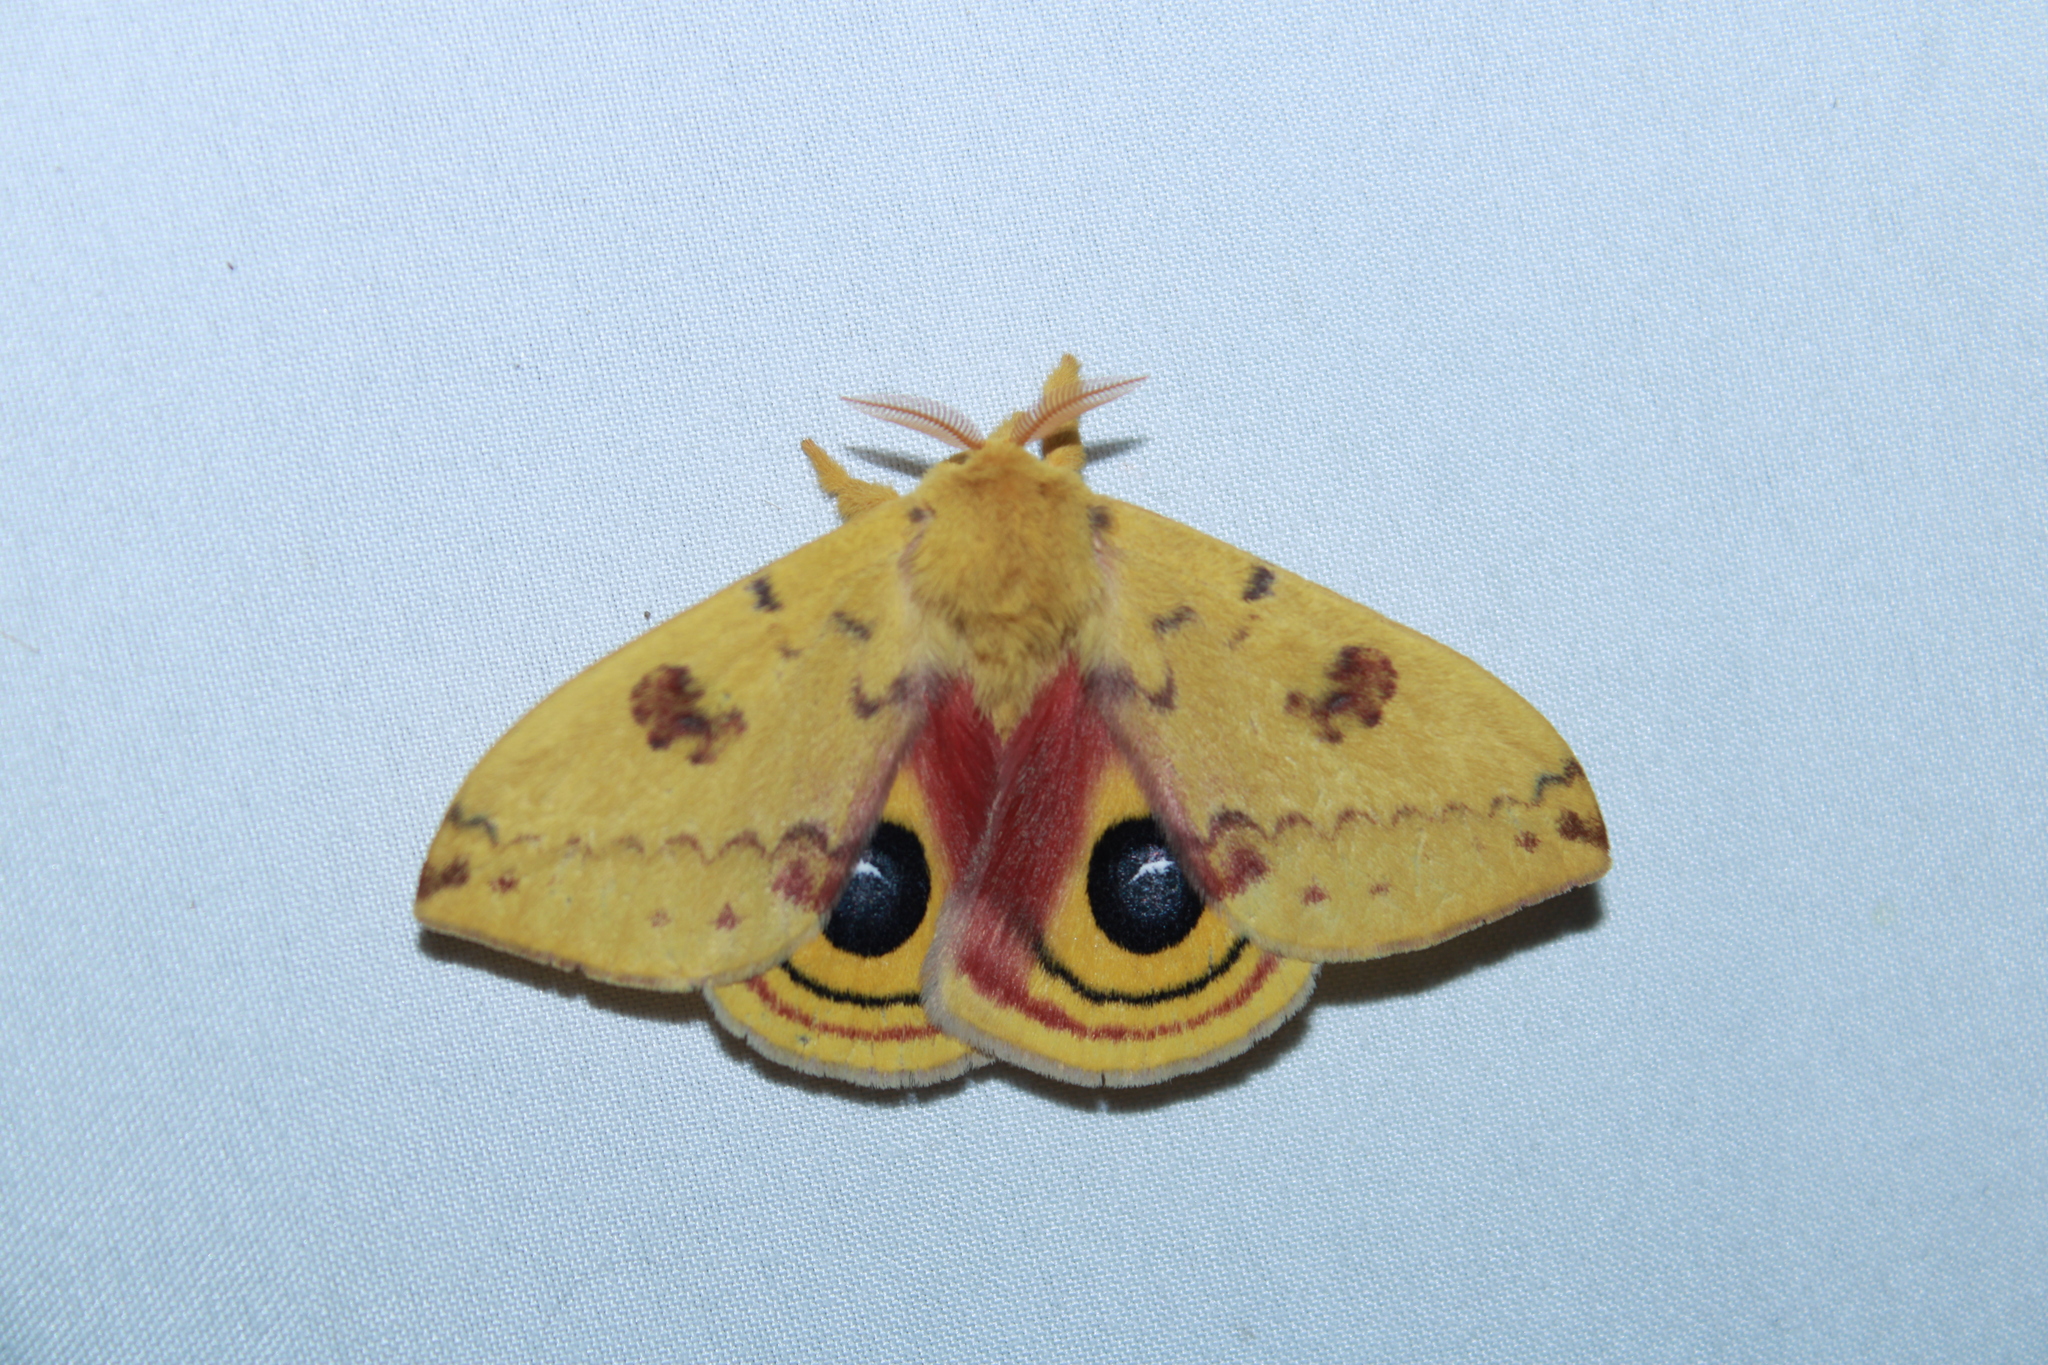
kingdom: Animalia
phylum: Arthropoda
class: Insecta
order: Lepidoptera
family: Saturniidae
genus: Automeris
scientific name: Automeris io
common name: Io moth
